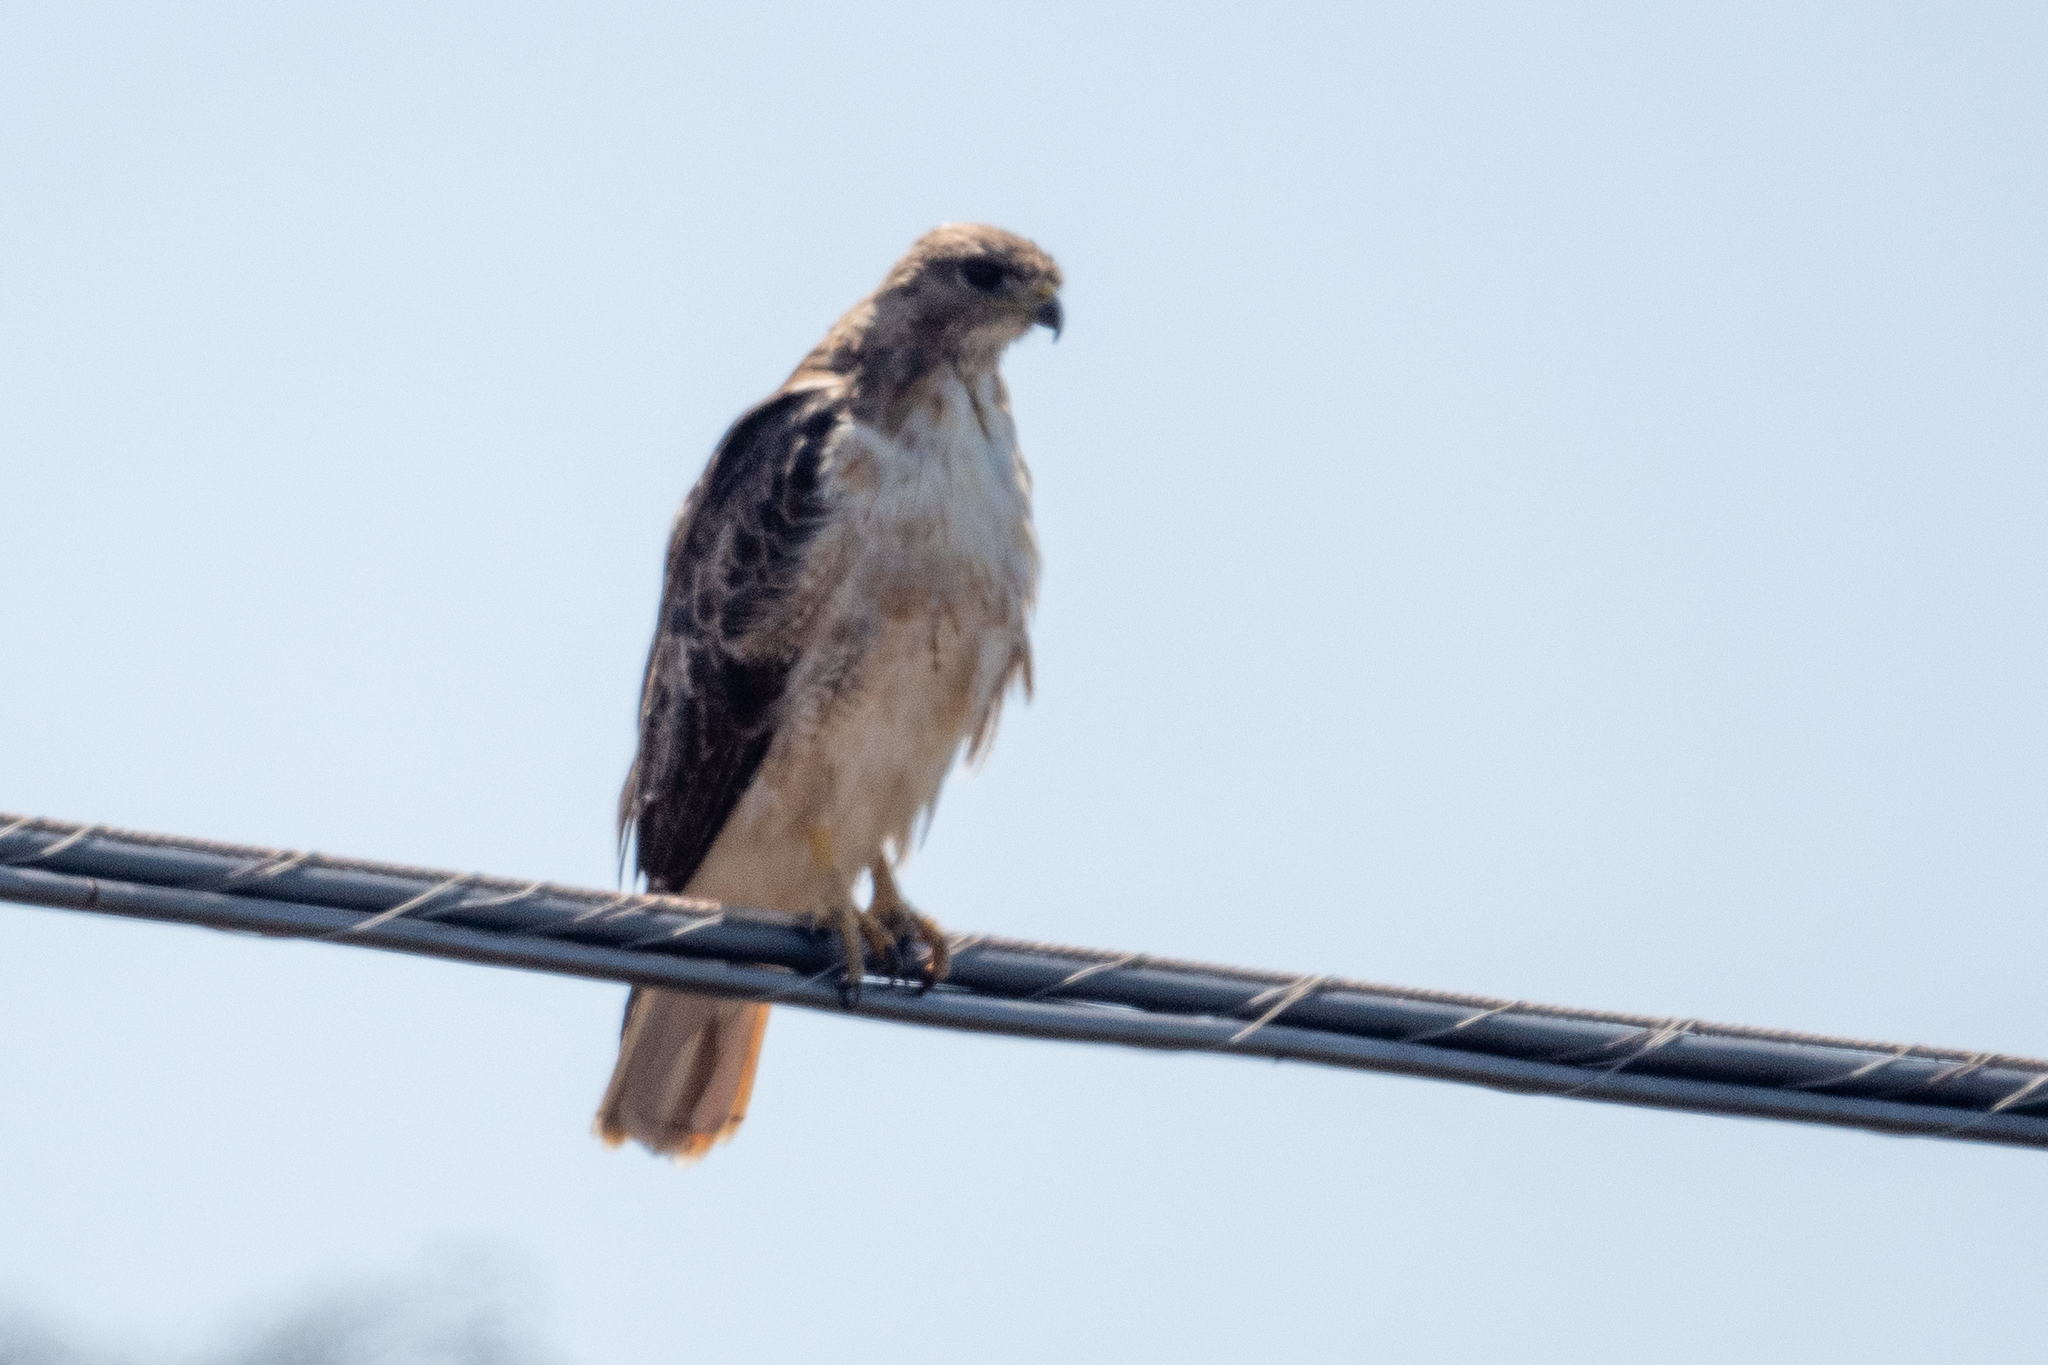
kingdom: Animalia
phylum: Chordata
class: Aves
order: Accipitriformes
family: Accipitridae
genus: Buteo
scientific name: Buteo jamaicensis
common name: Red-tailed hawk
